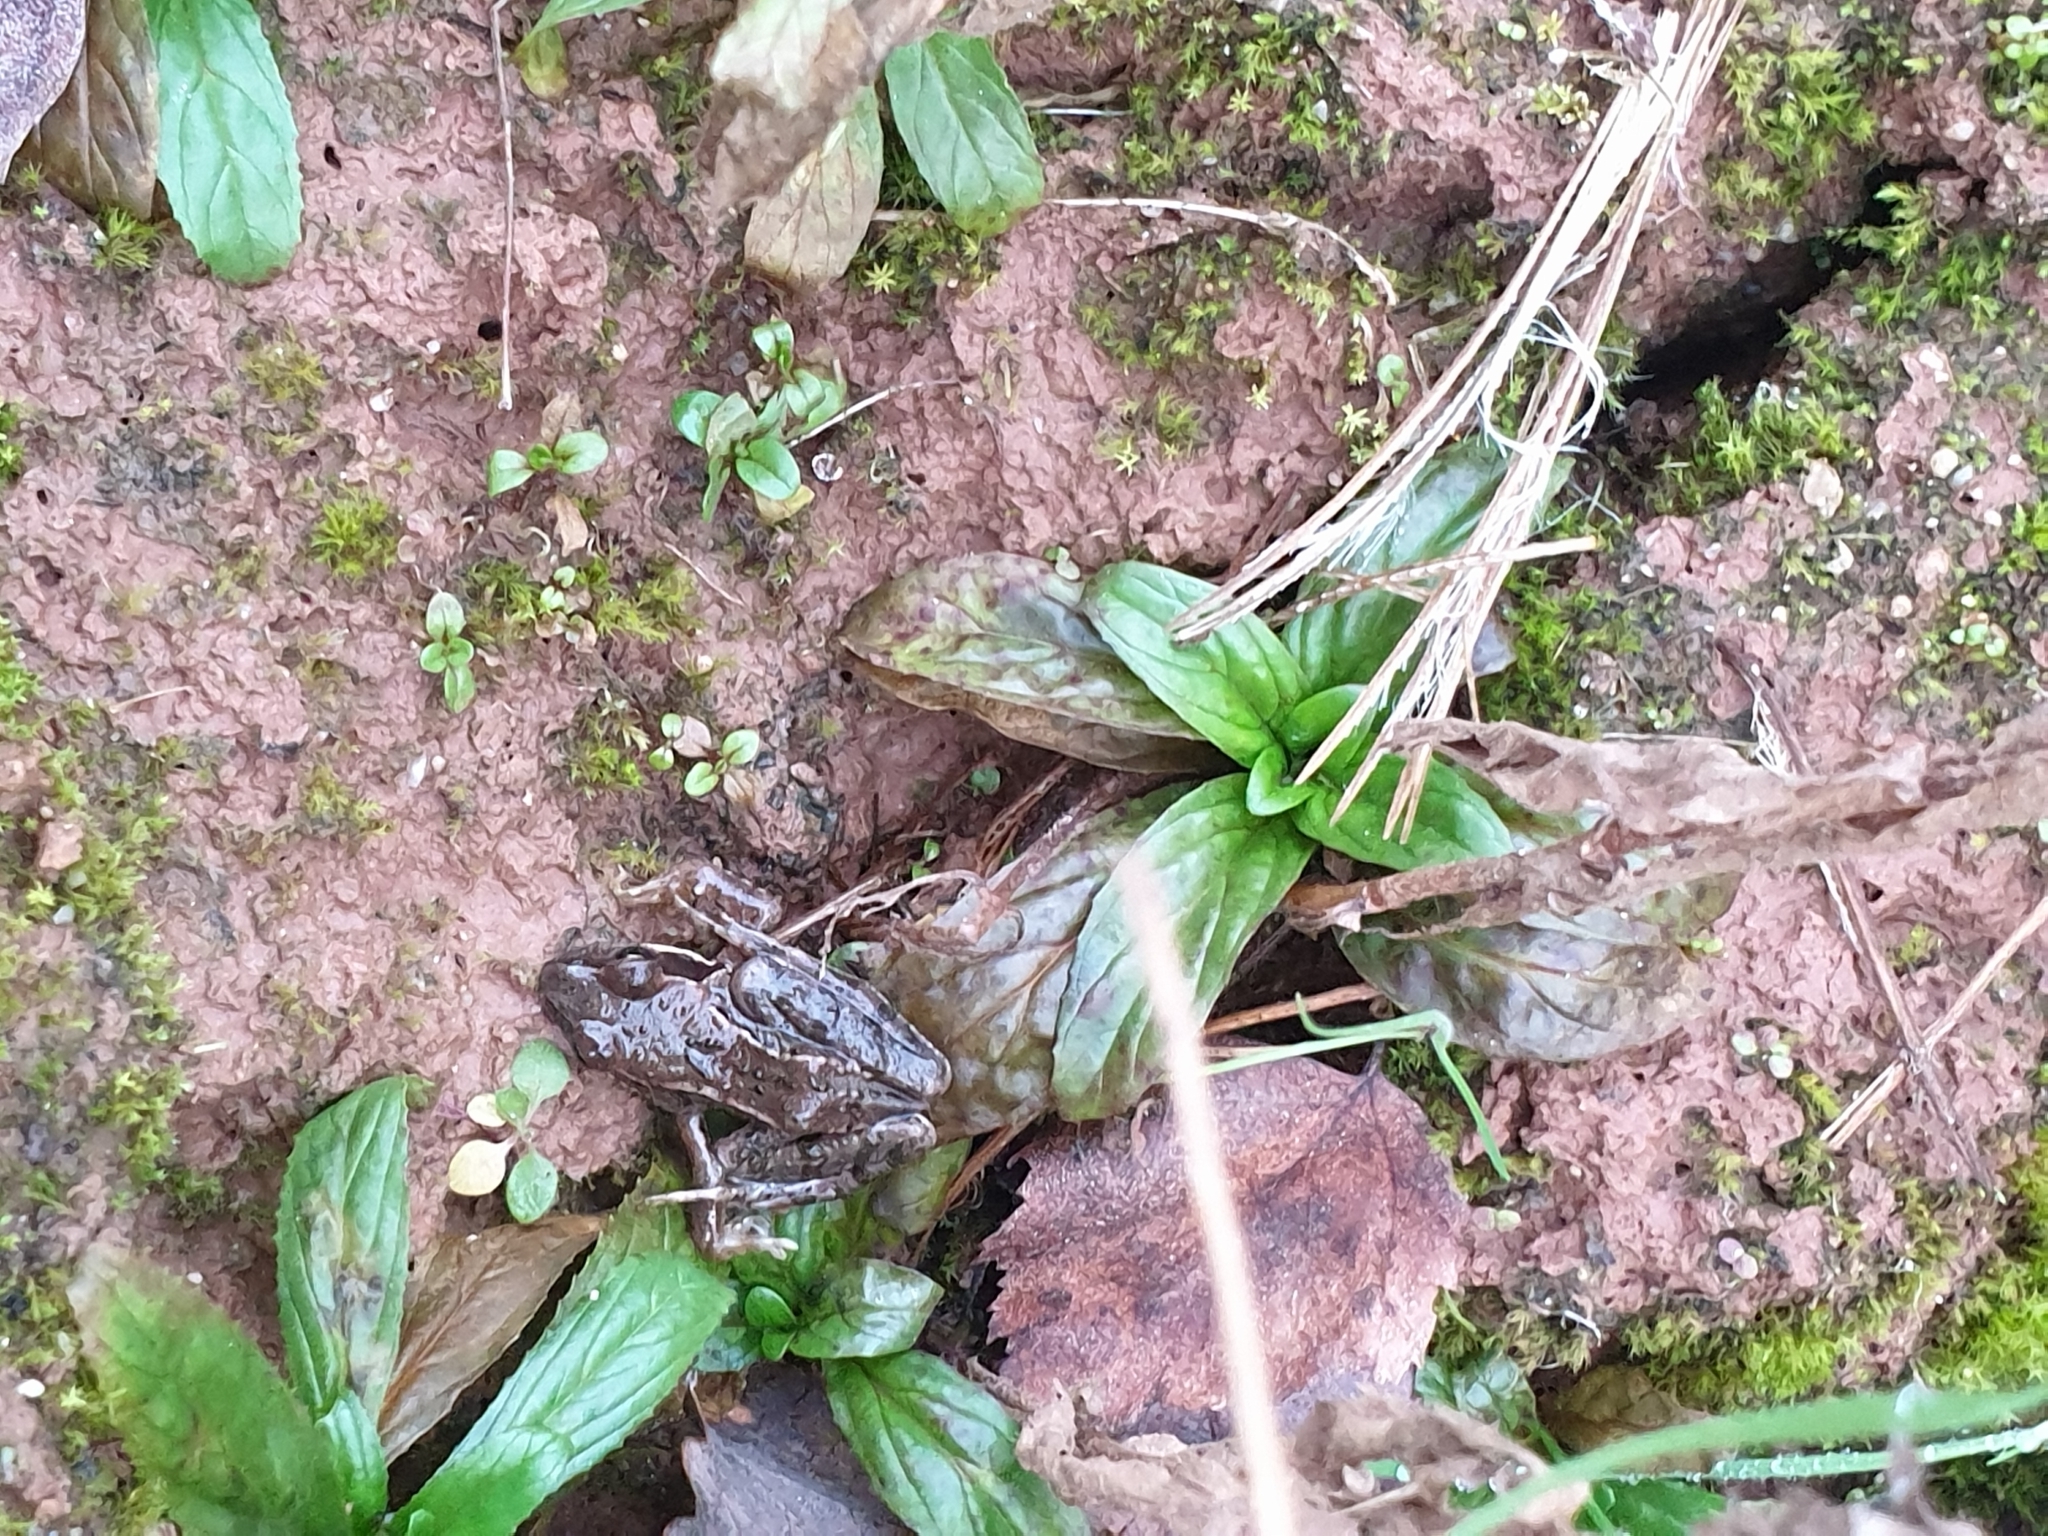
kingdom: Animalia
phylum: Chordata
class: Amphibia
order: Anura
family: Ranidae
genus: Rana
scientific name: Rana temporaria
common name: Common frog
